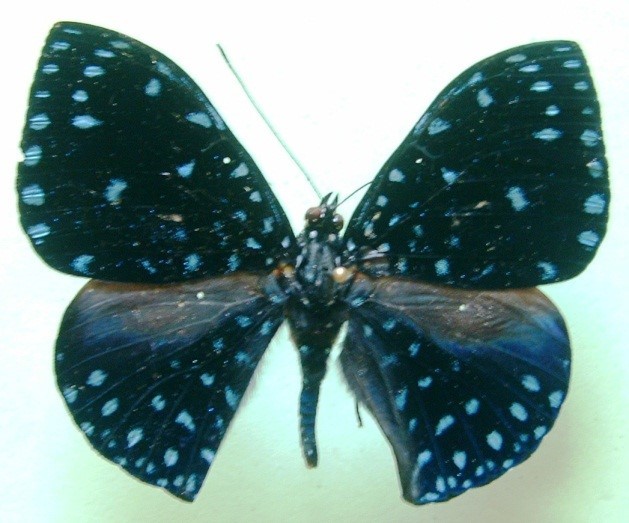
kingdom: Animalia
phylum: Arthropoda
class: Insecta
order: Lepidoptera
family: Nymphalidae
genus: Hamadryas
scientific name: Hamadryas arethusa
